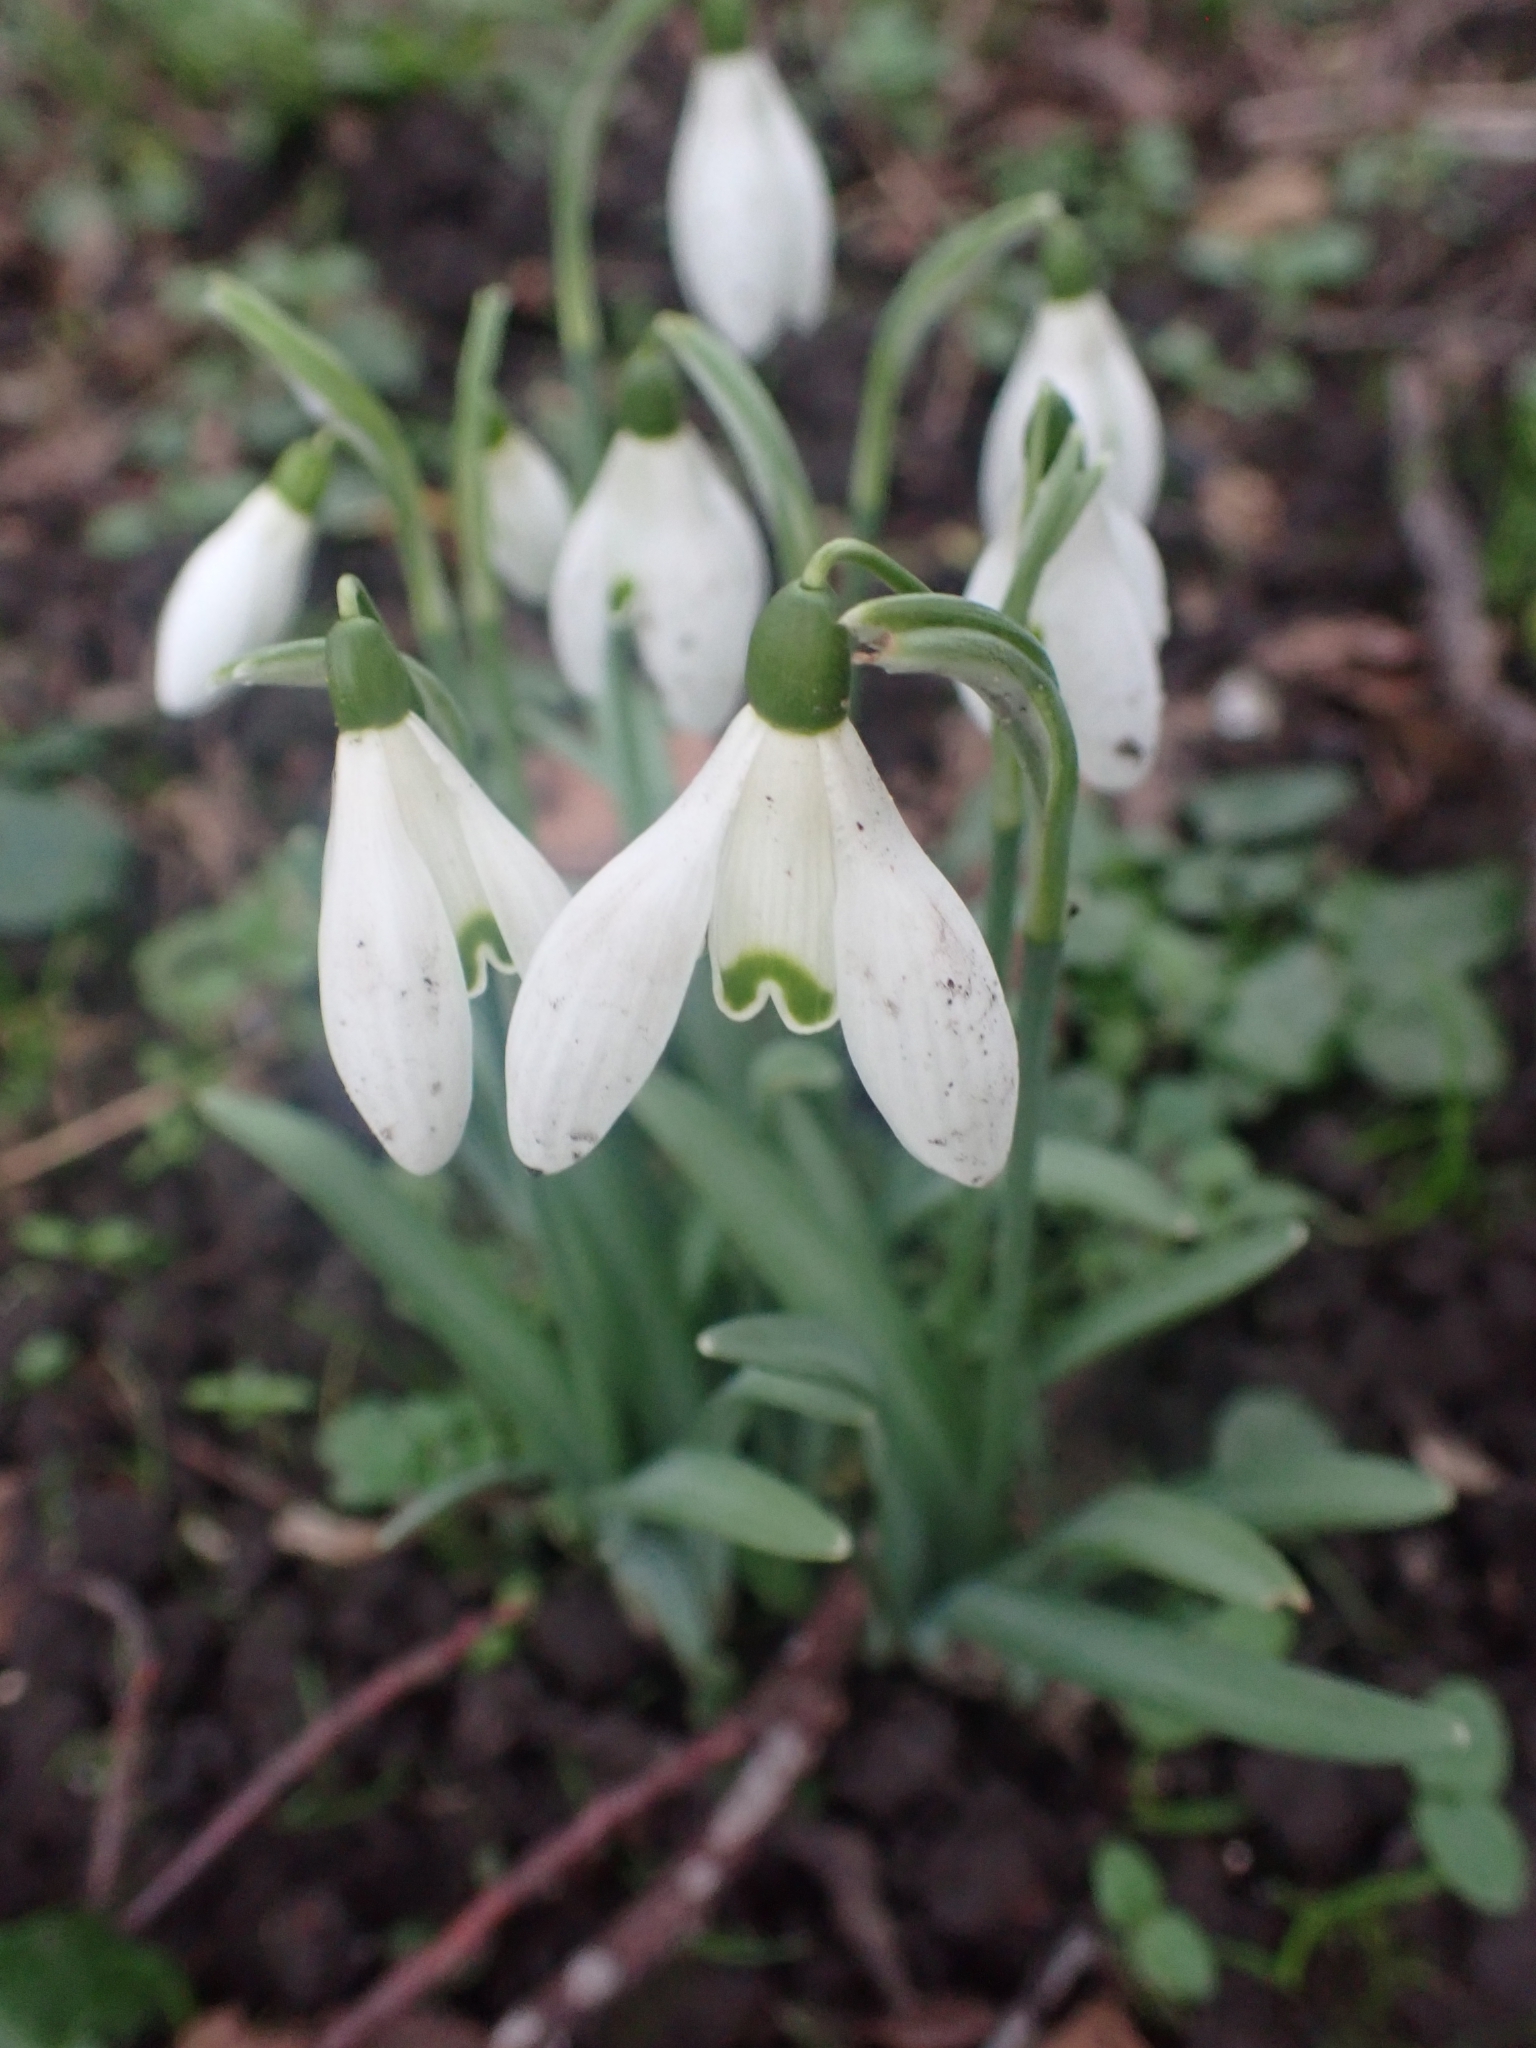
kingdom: Plantae
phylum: Tracheophyta
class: Liliopsida
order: Asparagales
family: Amaryllidaceae
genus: Galanthus
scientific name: Galanthus nivalis
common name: Snowdrop
